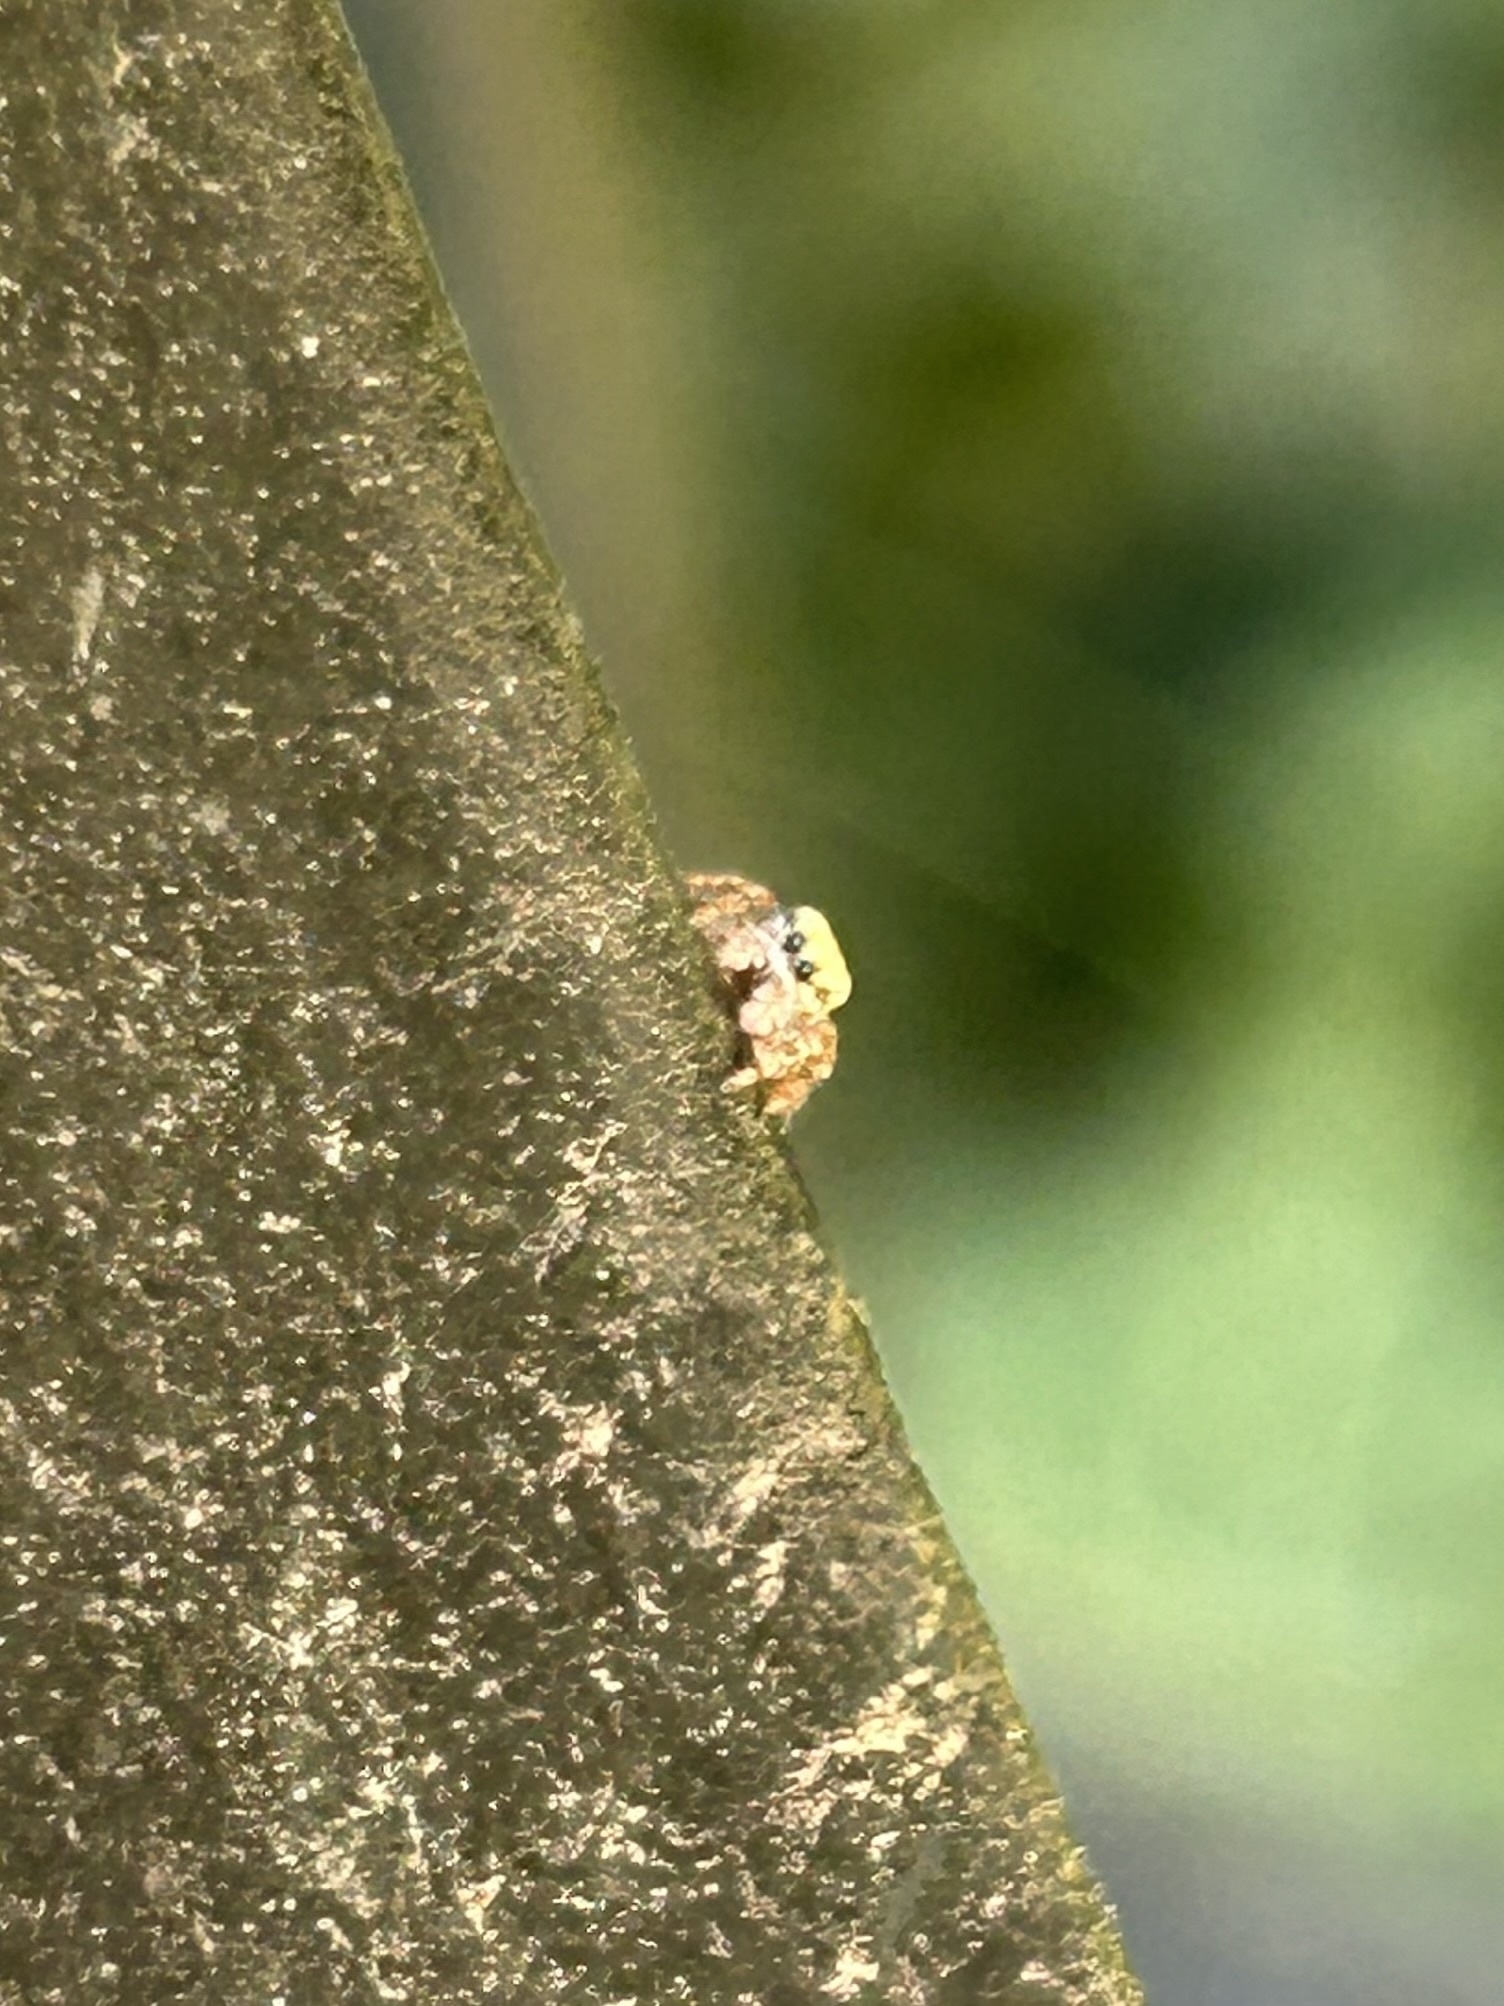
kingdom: Animalia
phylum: Arthropoda
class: Arachnida
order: Araneae
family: Salticidae
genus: Phidippus
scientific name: Phidippus
